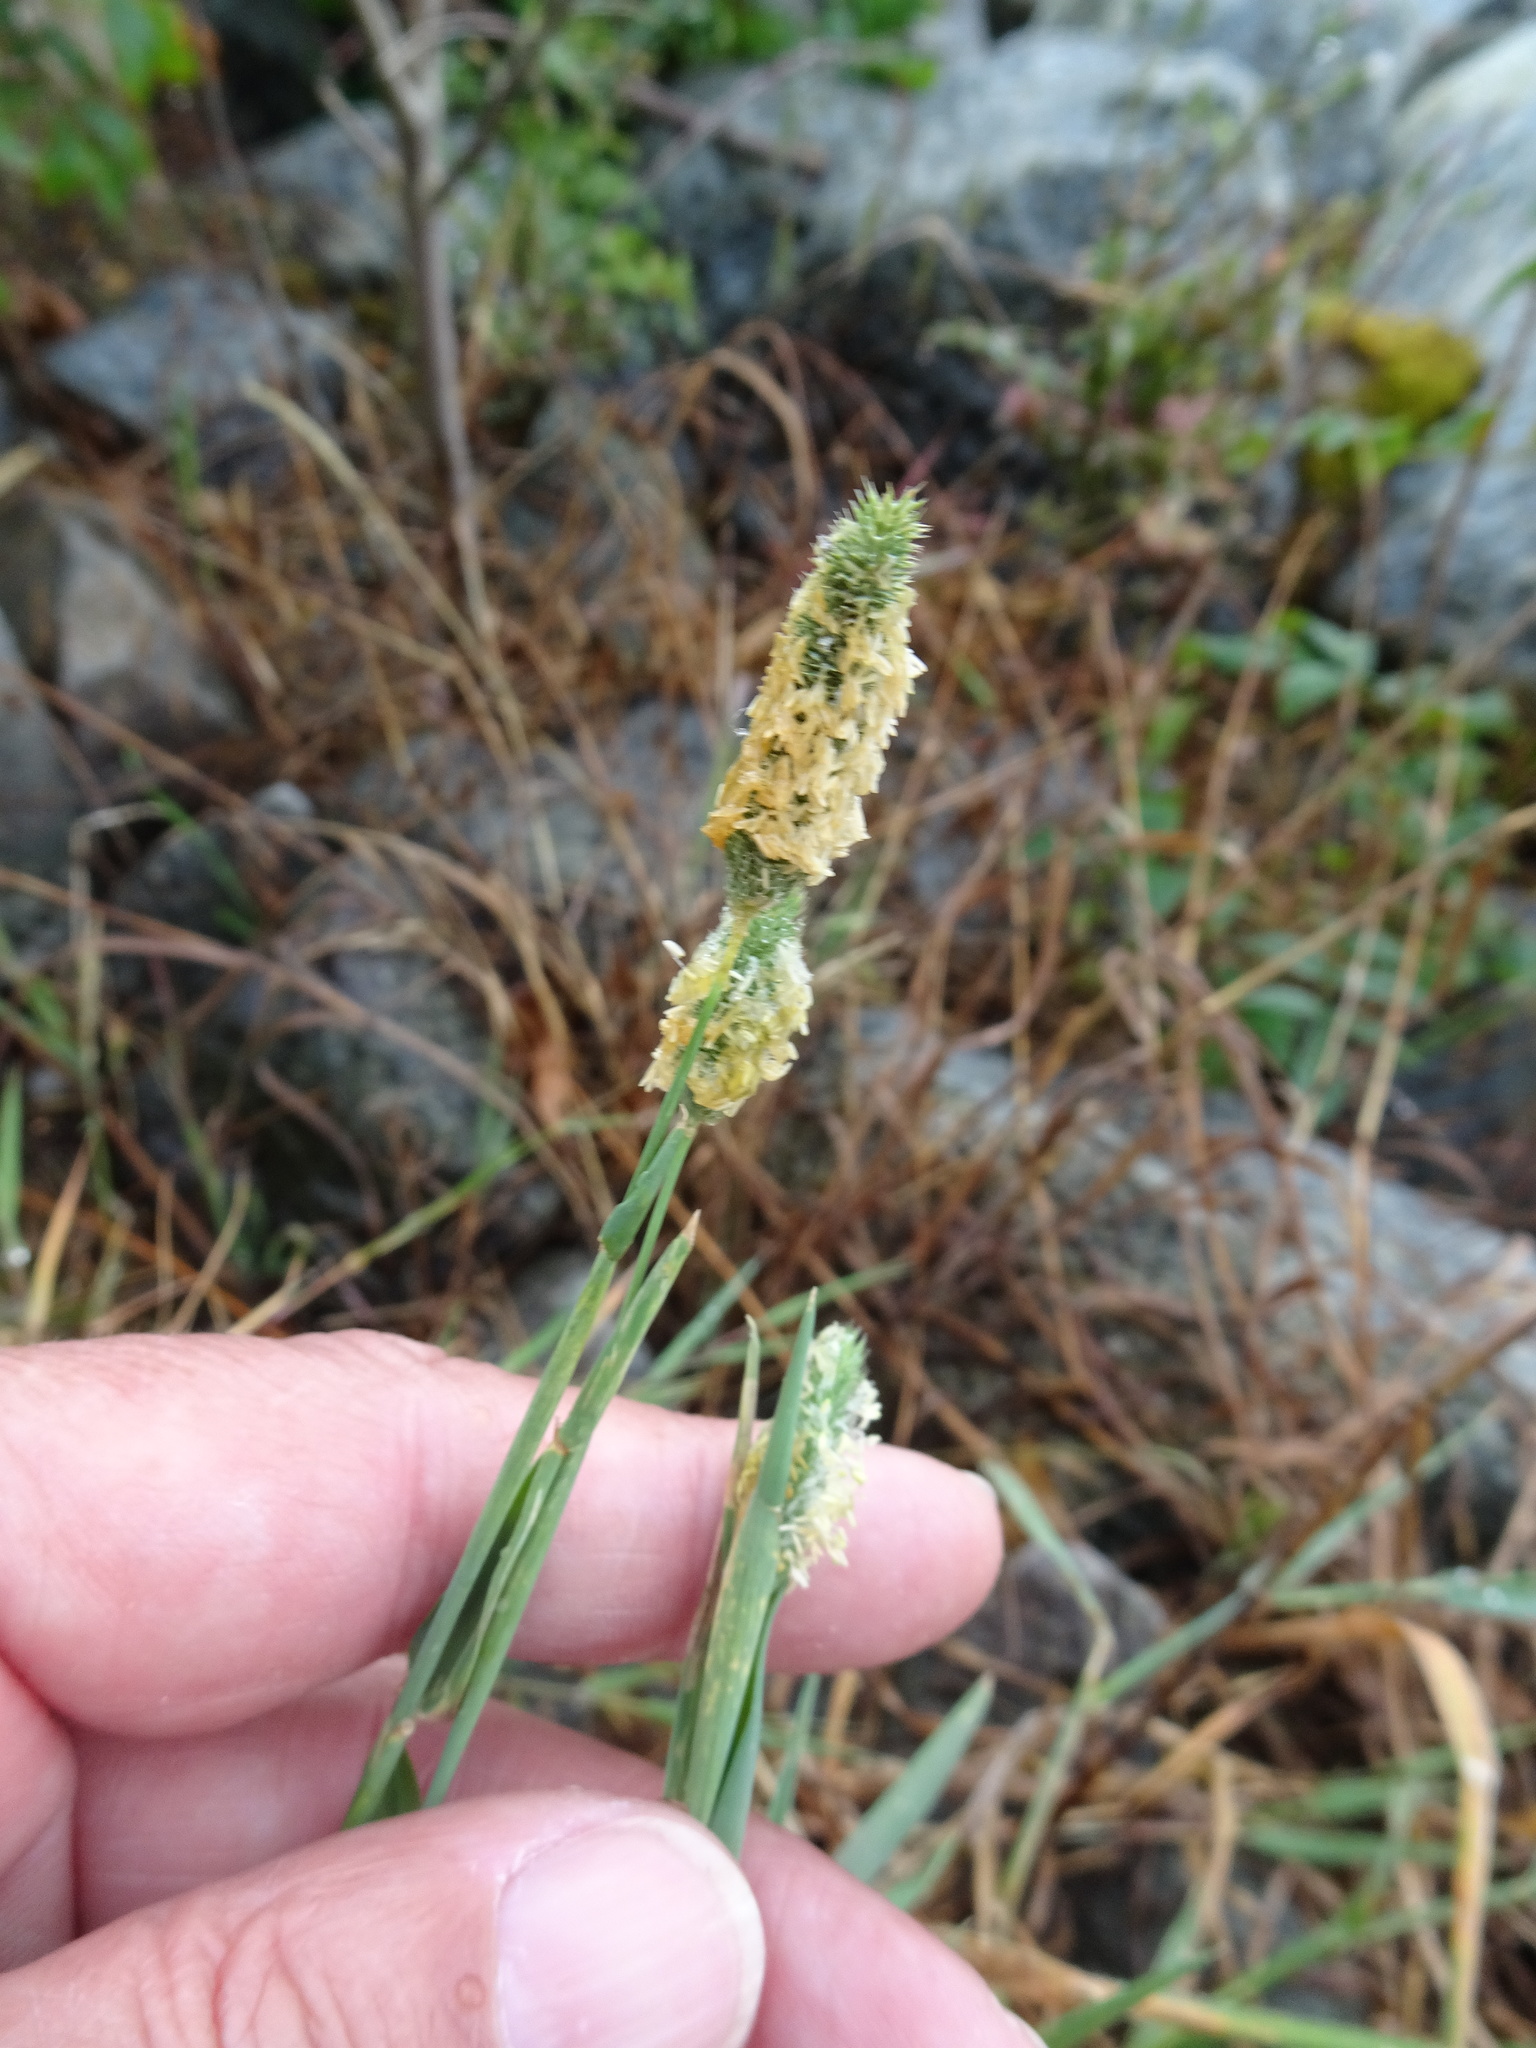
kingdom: Plantae
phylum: Tracheophyta
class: Liliopsida
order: Poales
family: Poaceae
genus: Phleum
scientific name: Phleum pratense
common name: Timothy grass
